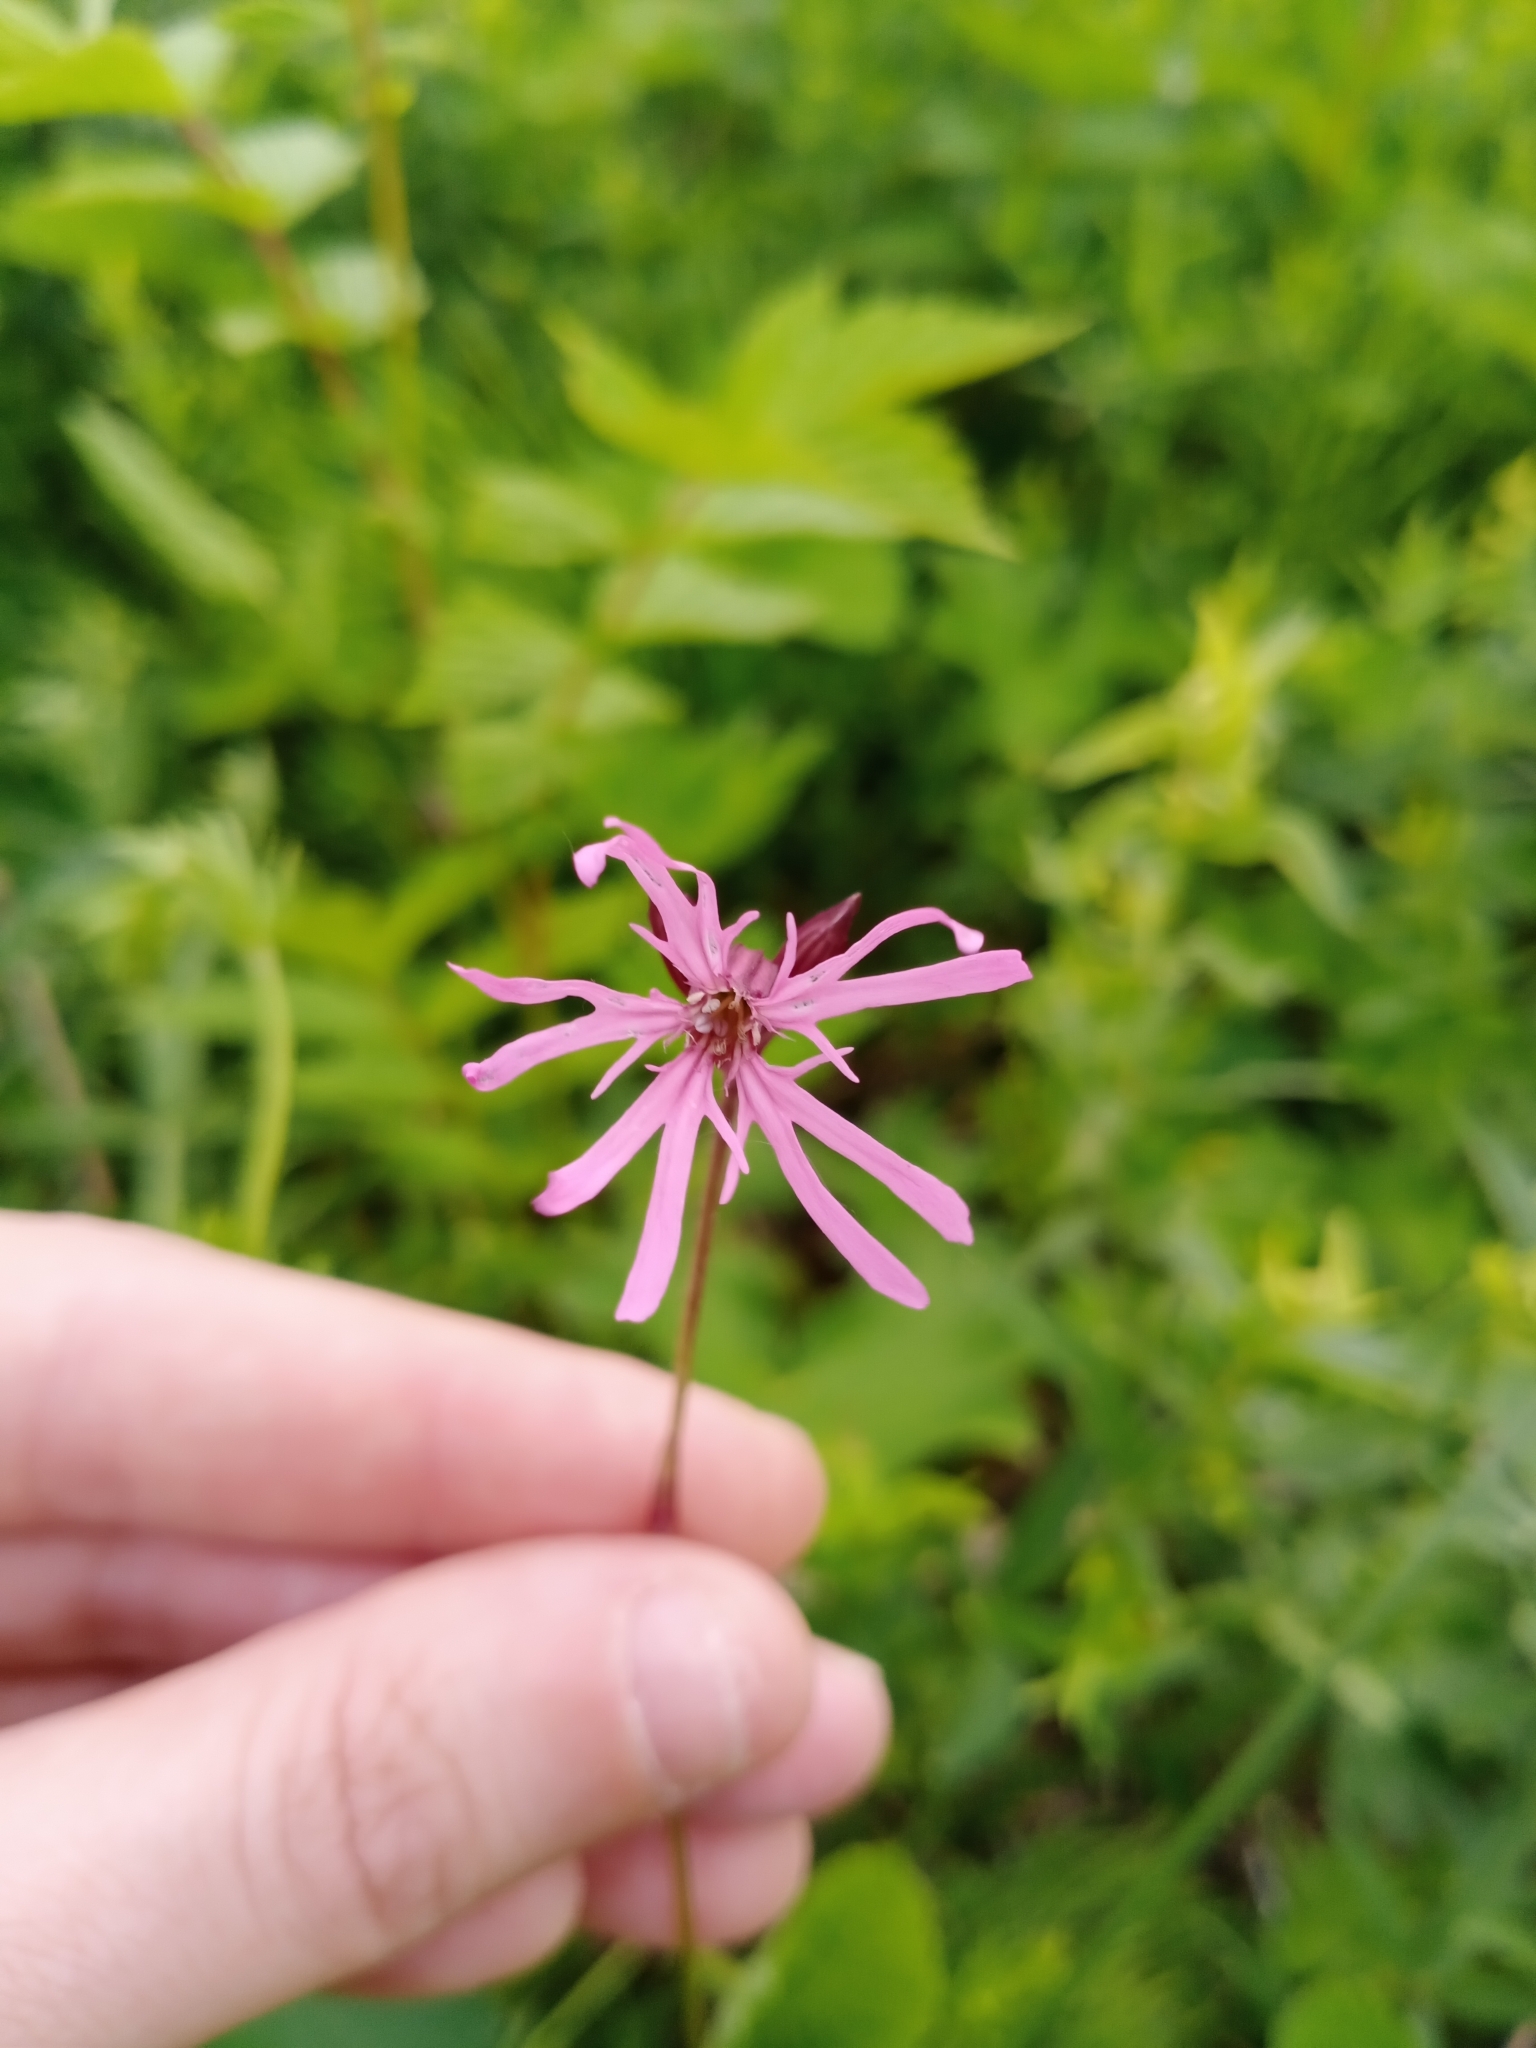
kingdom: Plantae
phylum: Tracheophyta
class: Magnoliopsida
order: Caryophyllales
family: Caryophyllaceae
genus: Silene
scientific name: Silene flos-cuculi
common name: Ragged-robin
